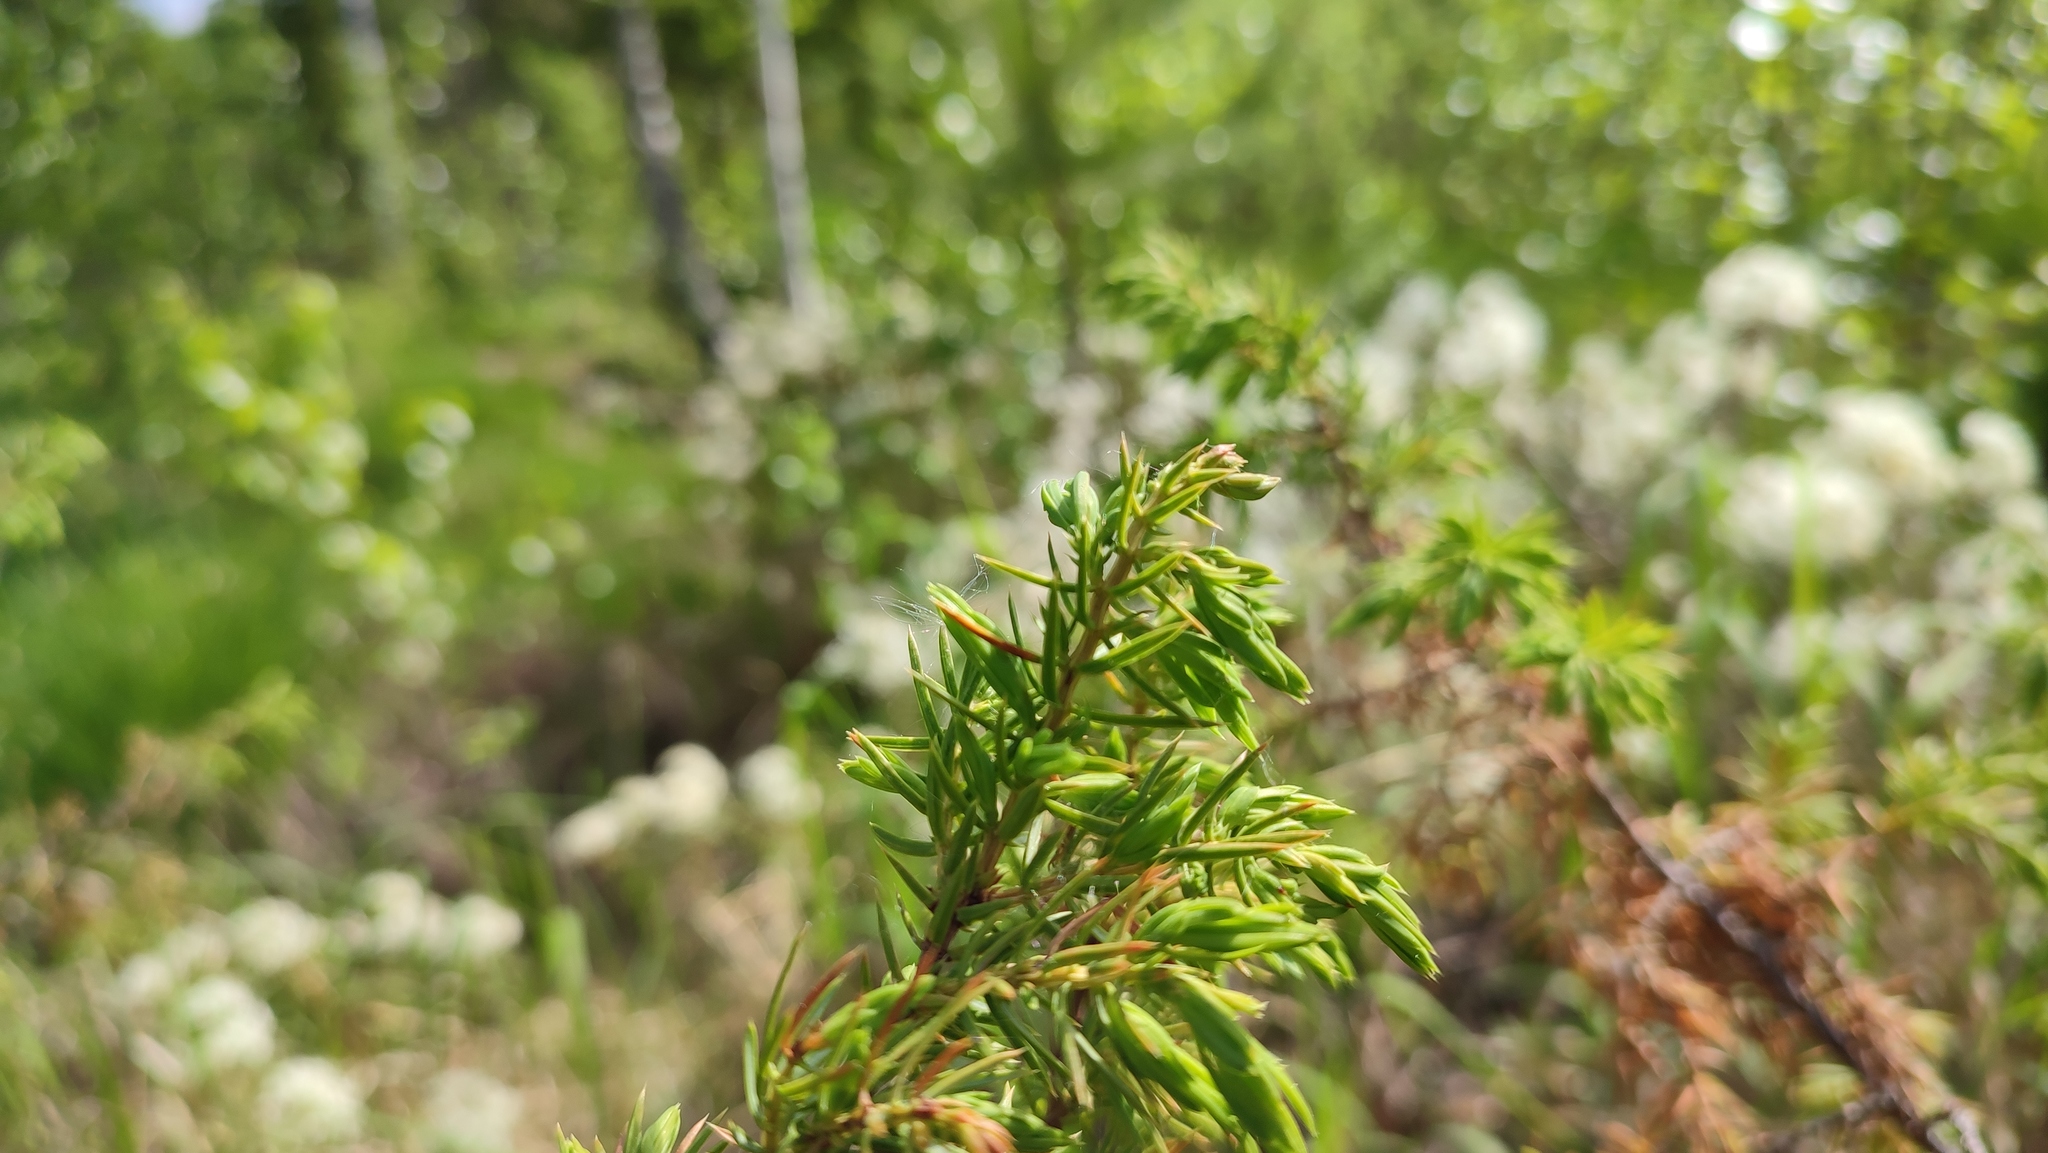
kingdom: Plantae
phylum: Tracheophyta
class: Pinopsida
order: Pinales
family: Cupressaceae
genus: Juniperus
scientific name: Juniperus communis
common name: Common juniper
